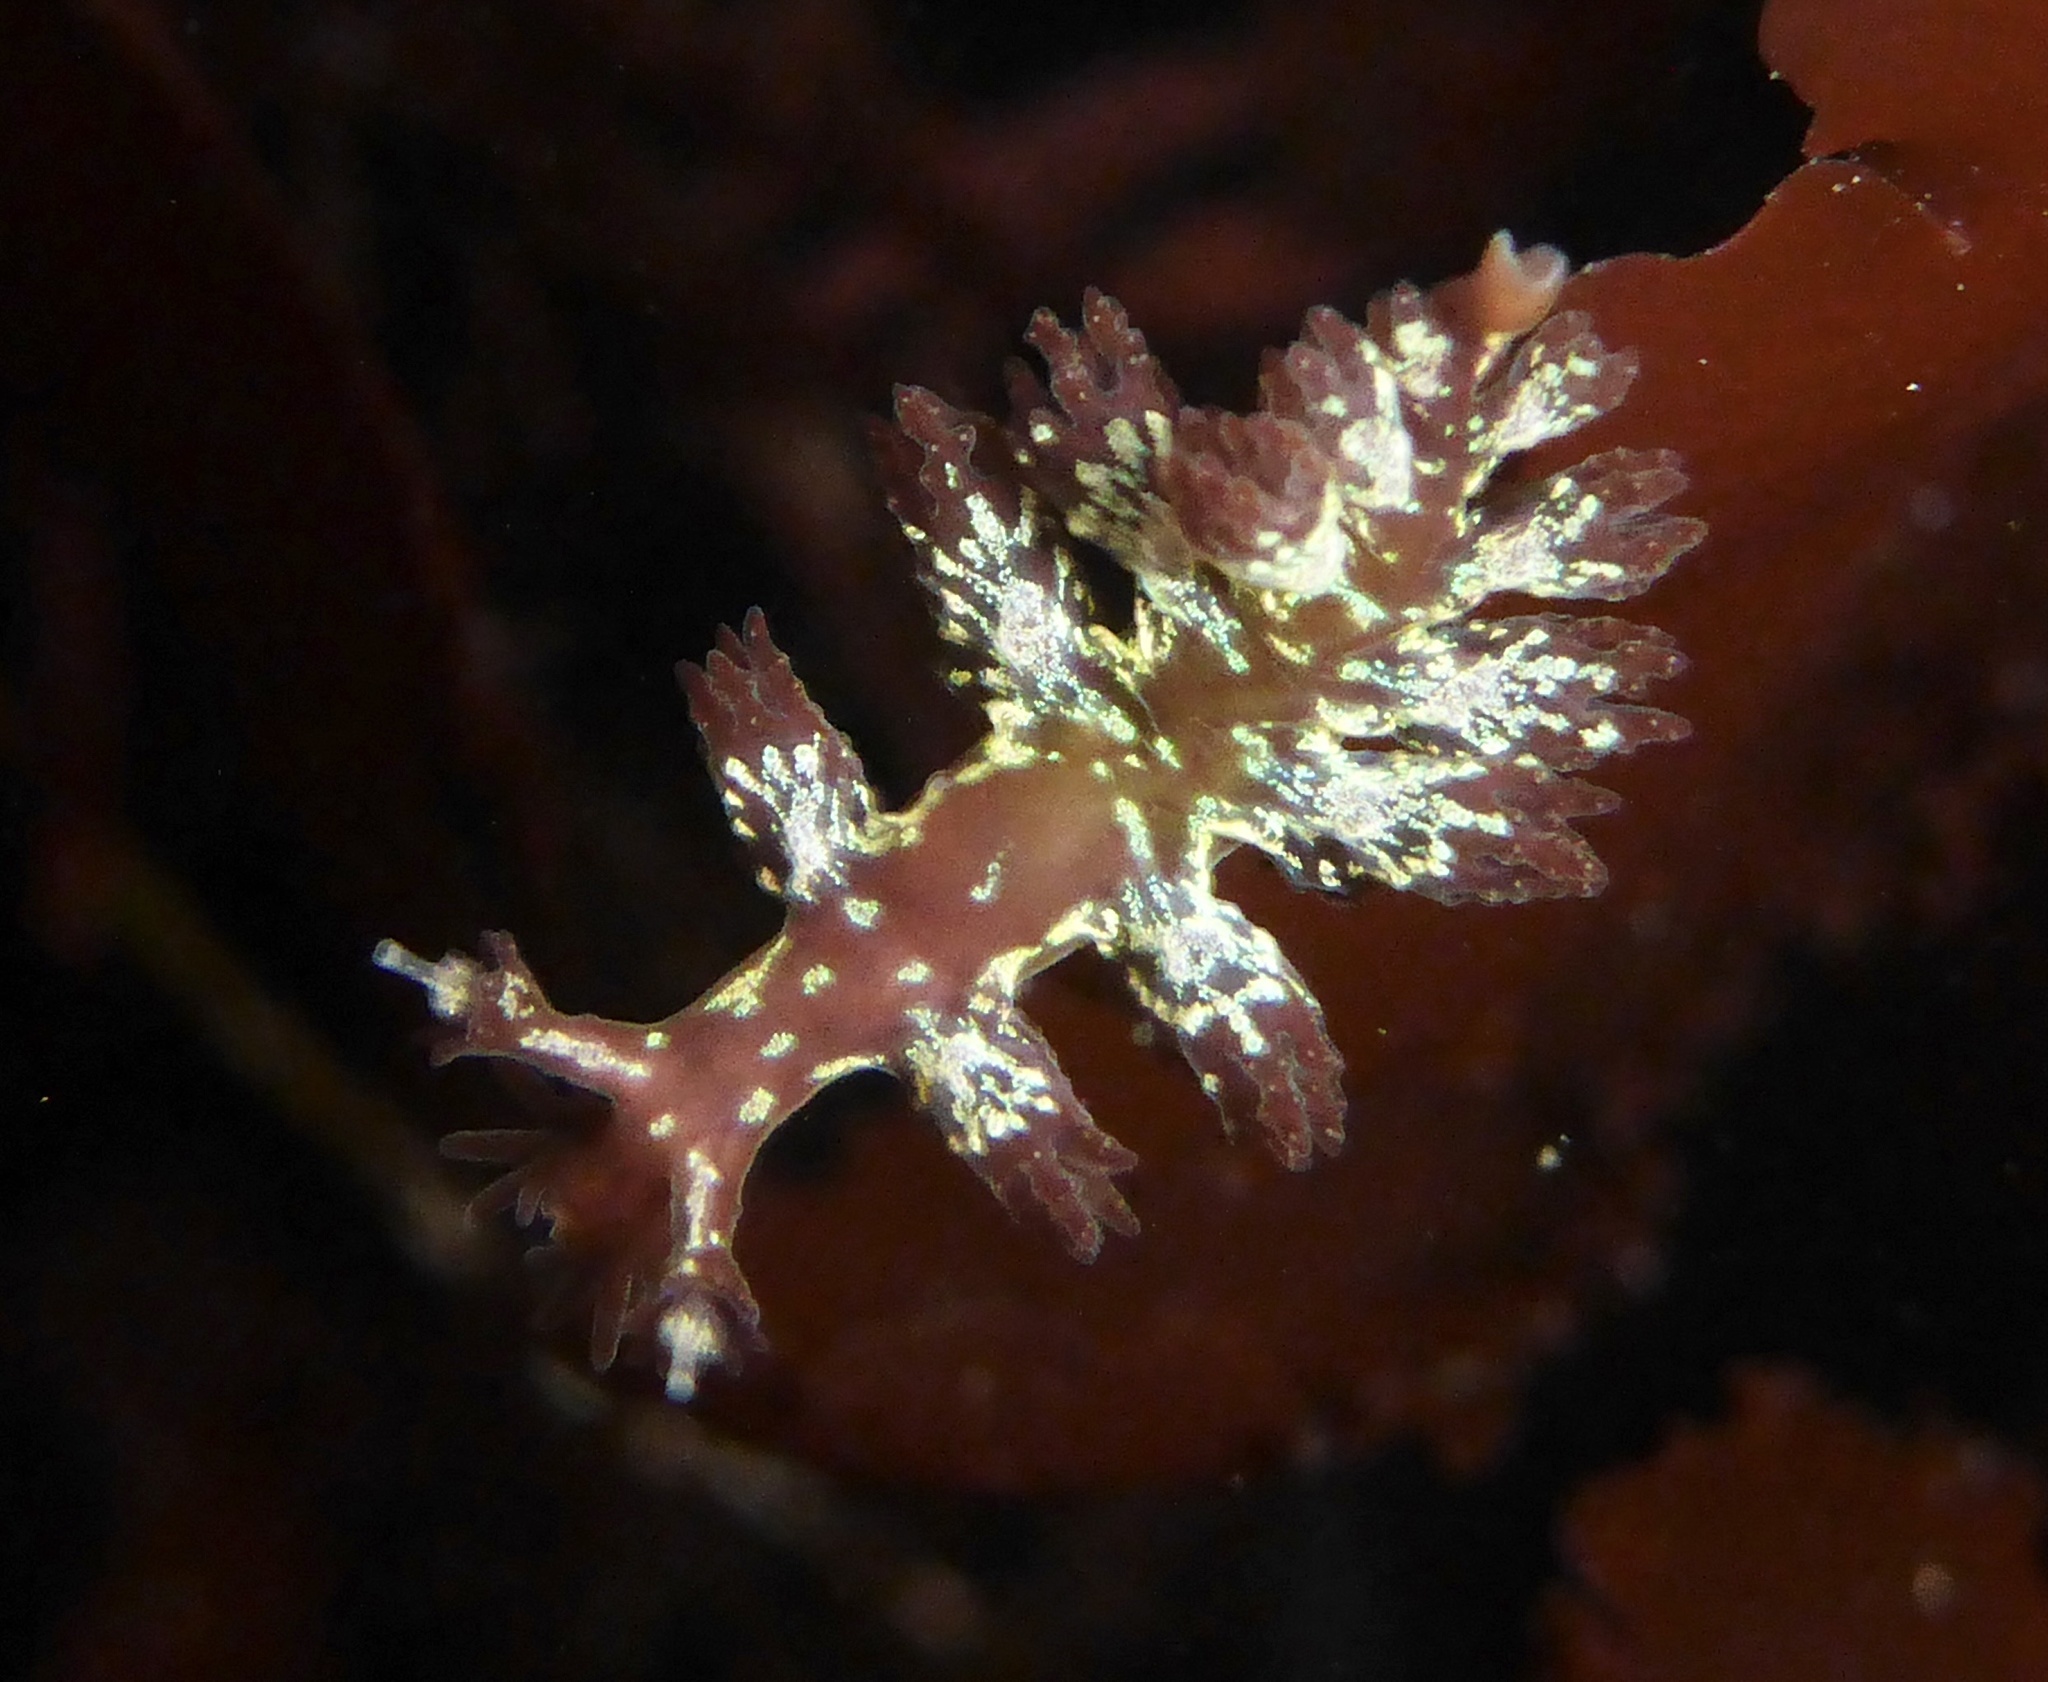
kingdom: Animalia
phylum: Mollusca
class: Gastropoda
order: Nudibranchia
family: Hancockiidae
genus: Hancockia
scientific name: Hancockia californica
